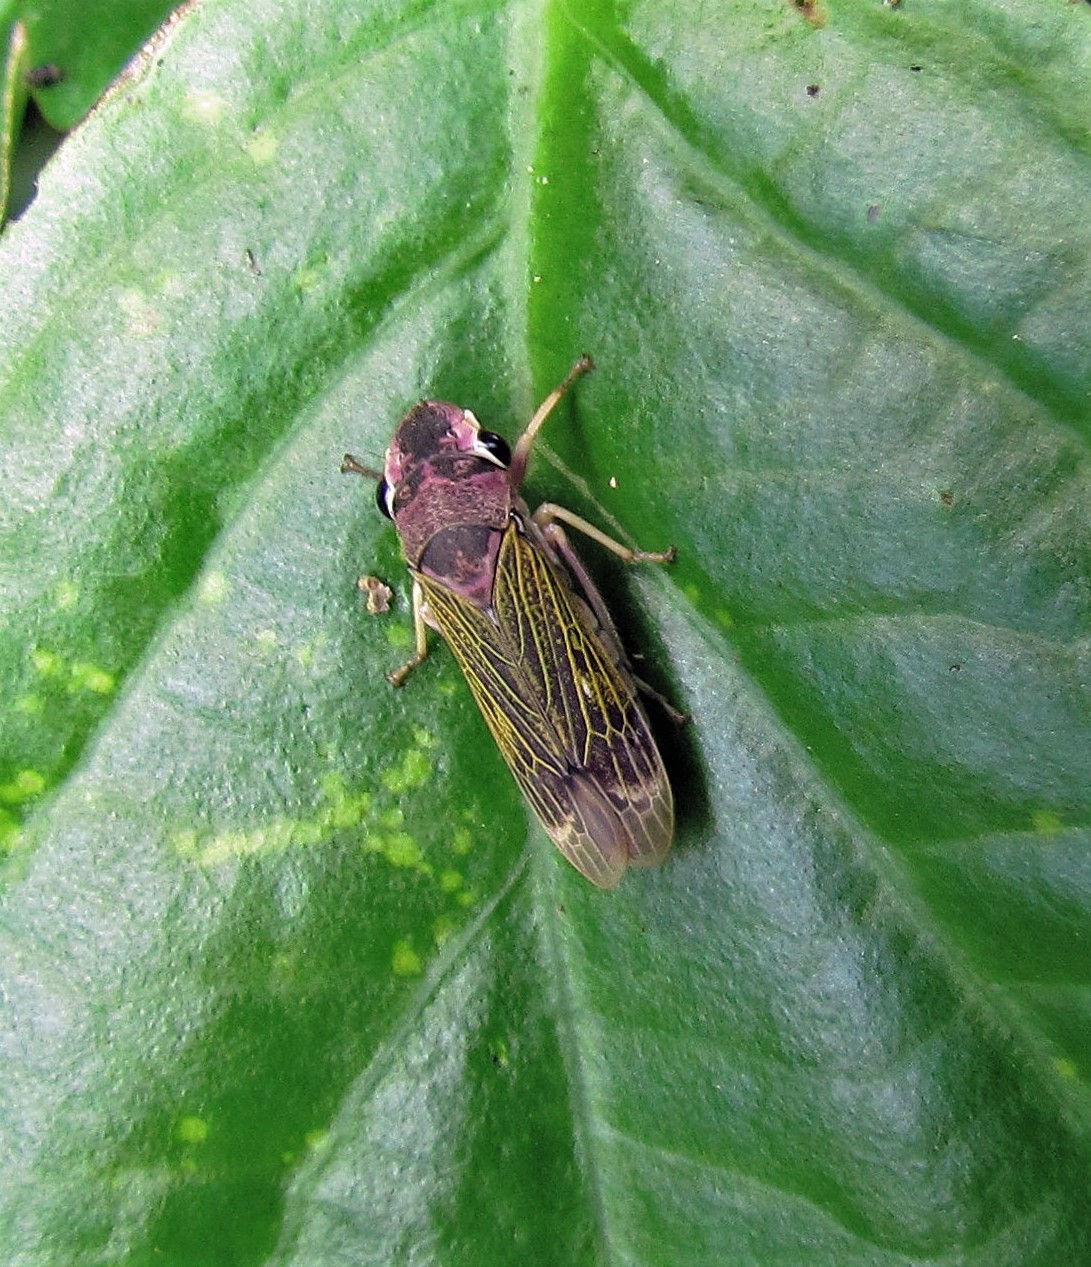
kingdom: Animalia
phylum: Arthropoda
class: Insecta
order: Hemiptera
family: Cicadellidae
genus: Oncometopia
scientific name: Oncometopia facialis
